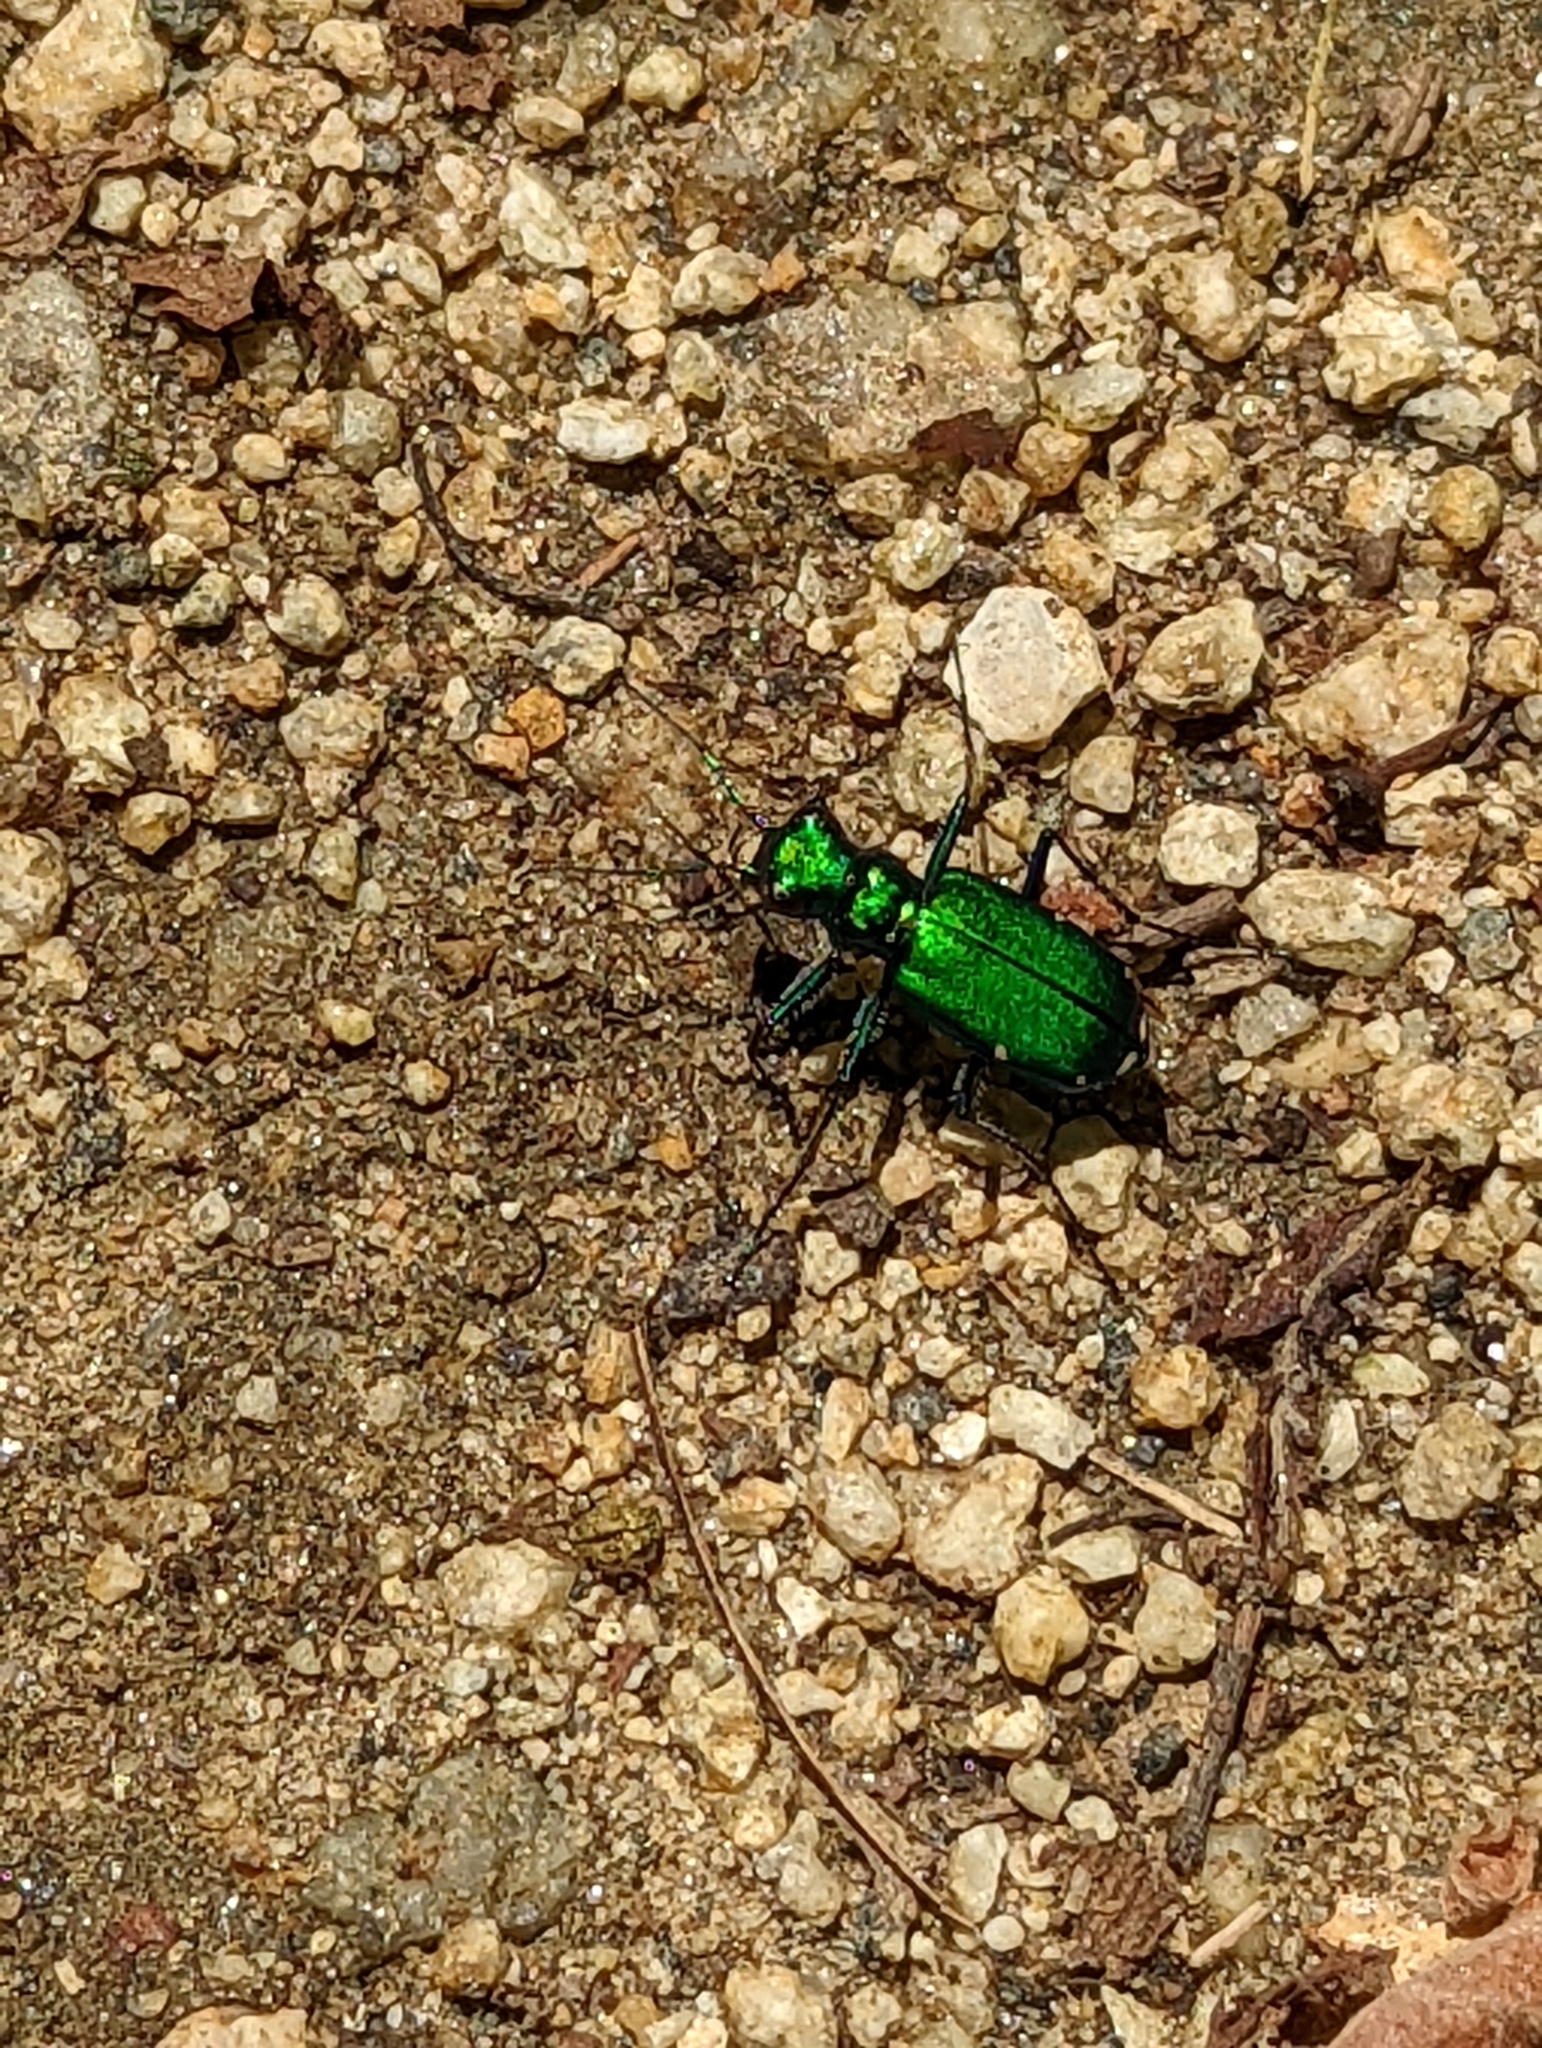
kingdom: Animalia
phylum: Arthropoda
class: Insecta
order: Coleoptera
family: Carabidae
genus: Cicindela
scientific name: Cicindela sexguttata
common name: Six-spotted tiger beetle
